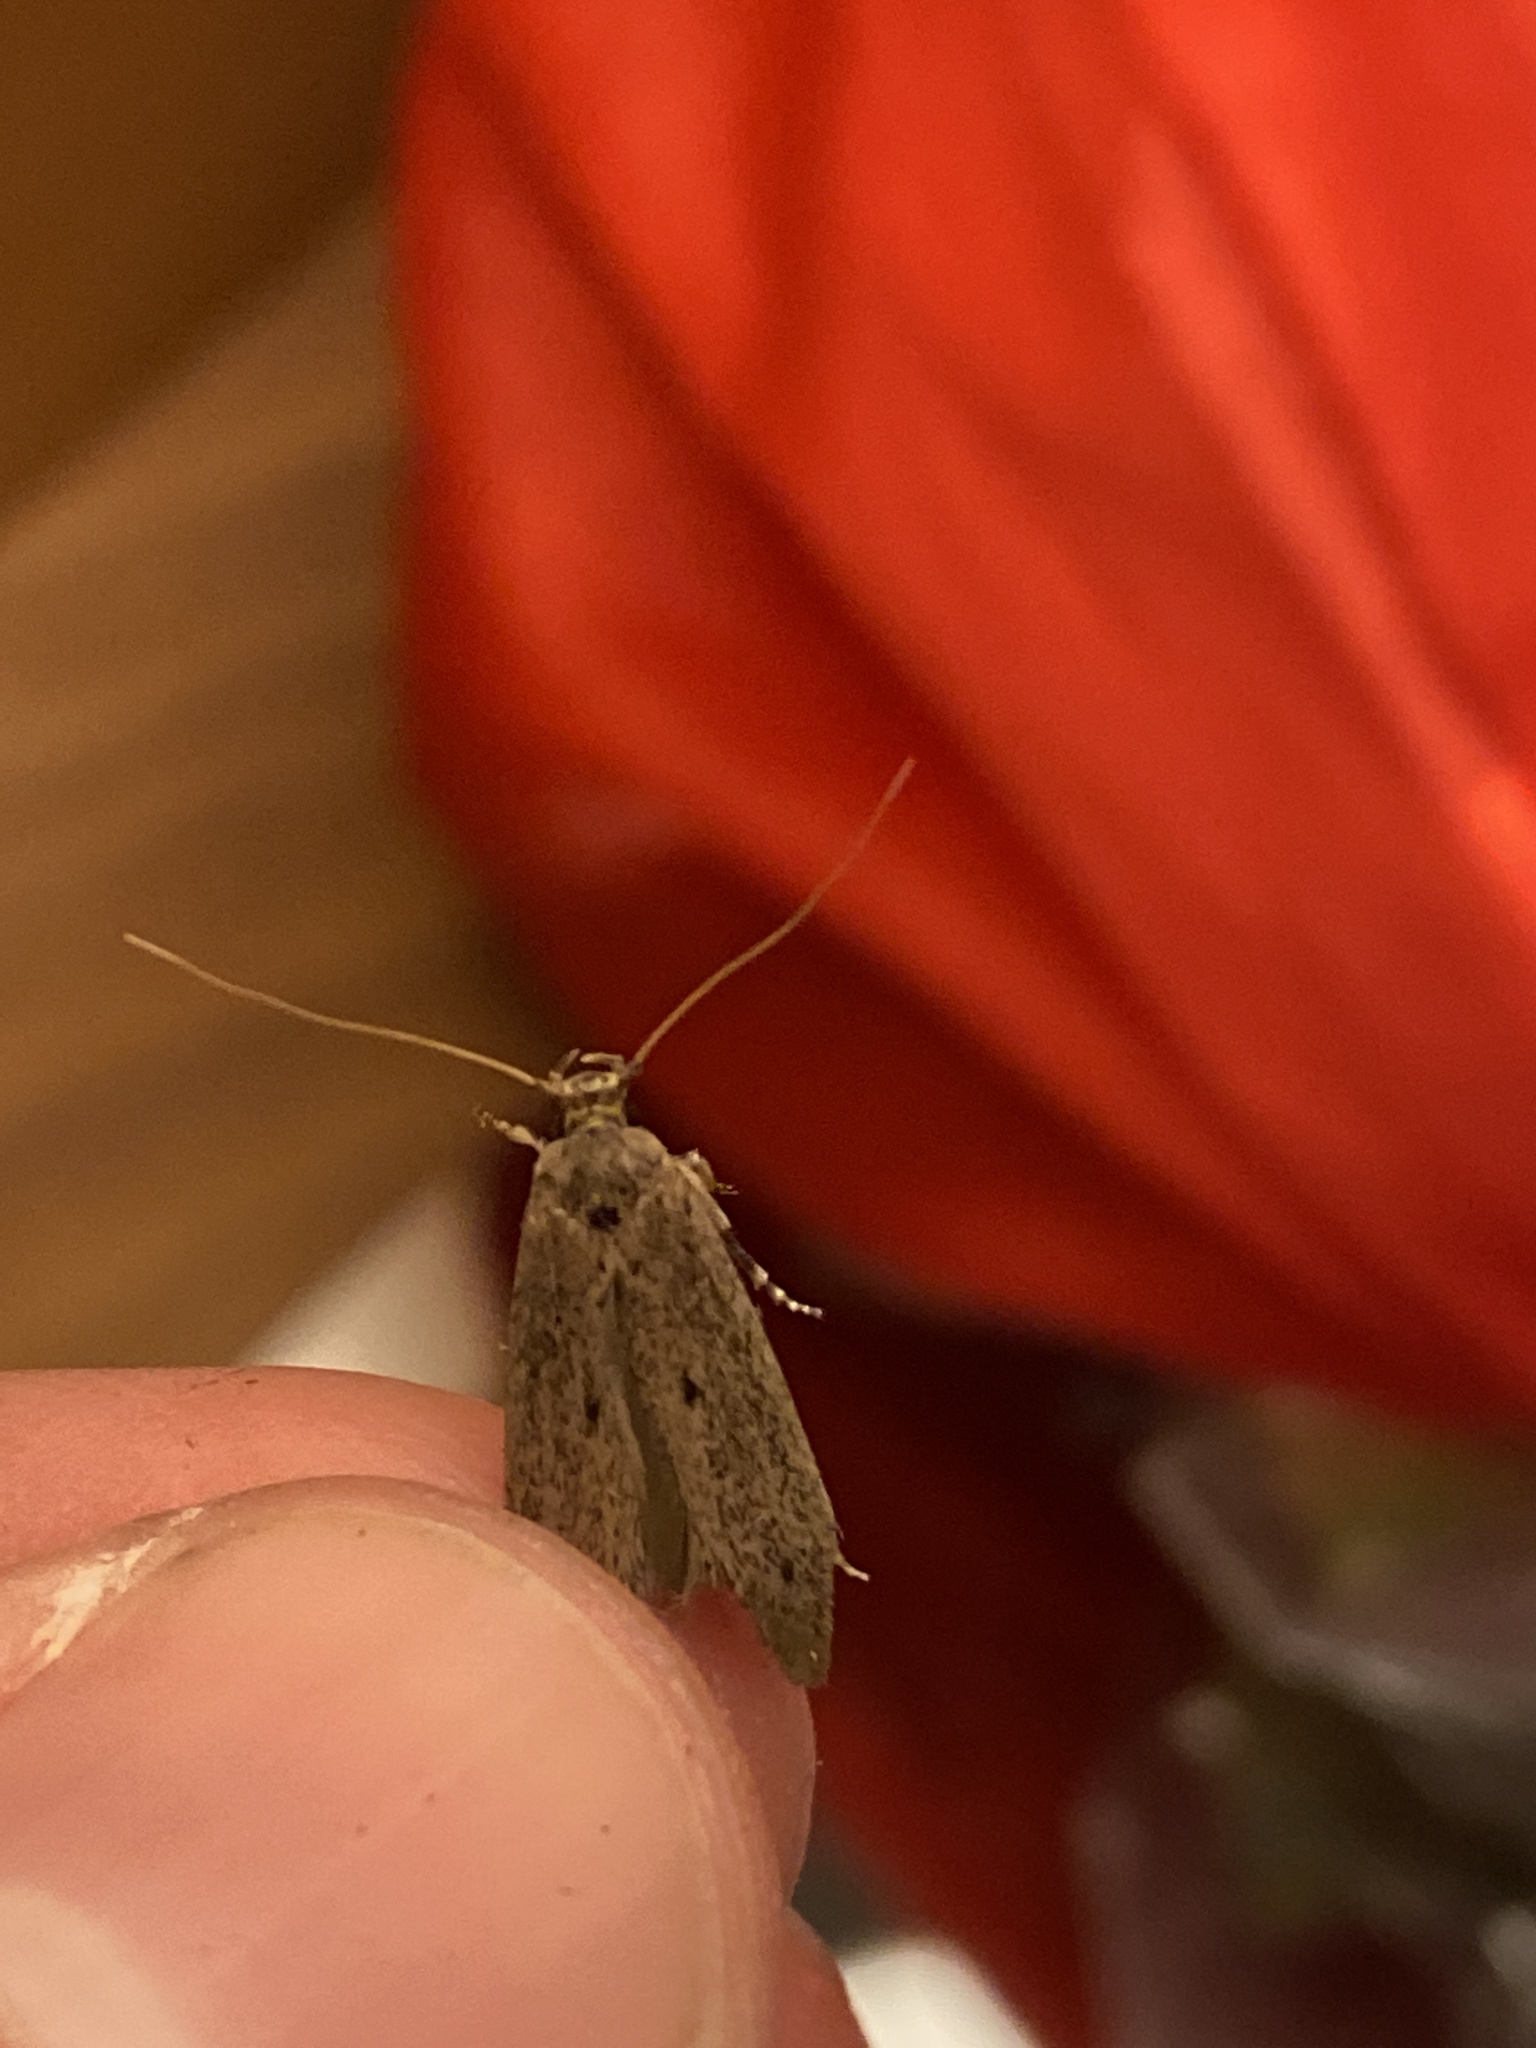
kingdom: Animalia
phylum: Arthropoda
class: Insecta
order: Lepidoptera
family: Tineidae
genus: Opogona
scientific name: Opogona sacchari
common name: Banana bud moth
